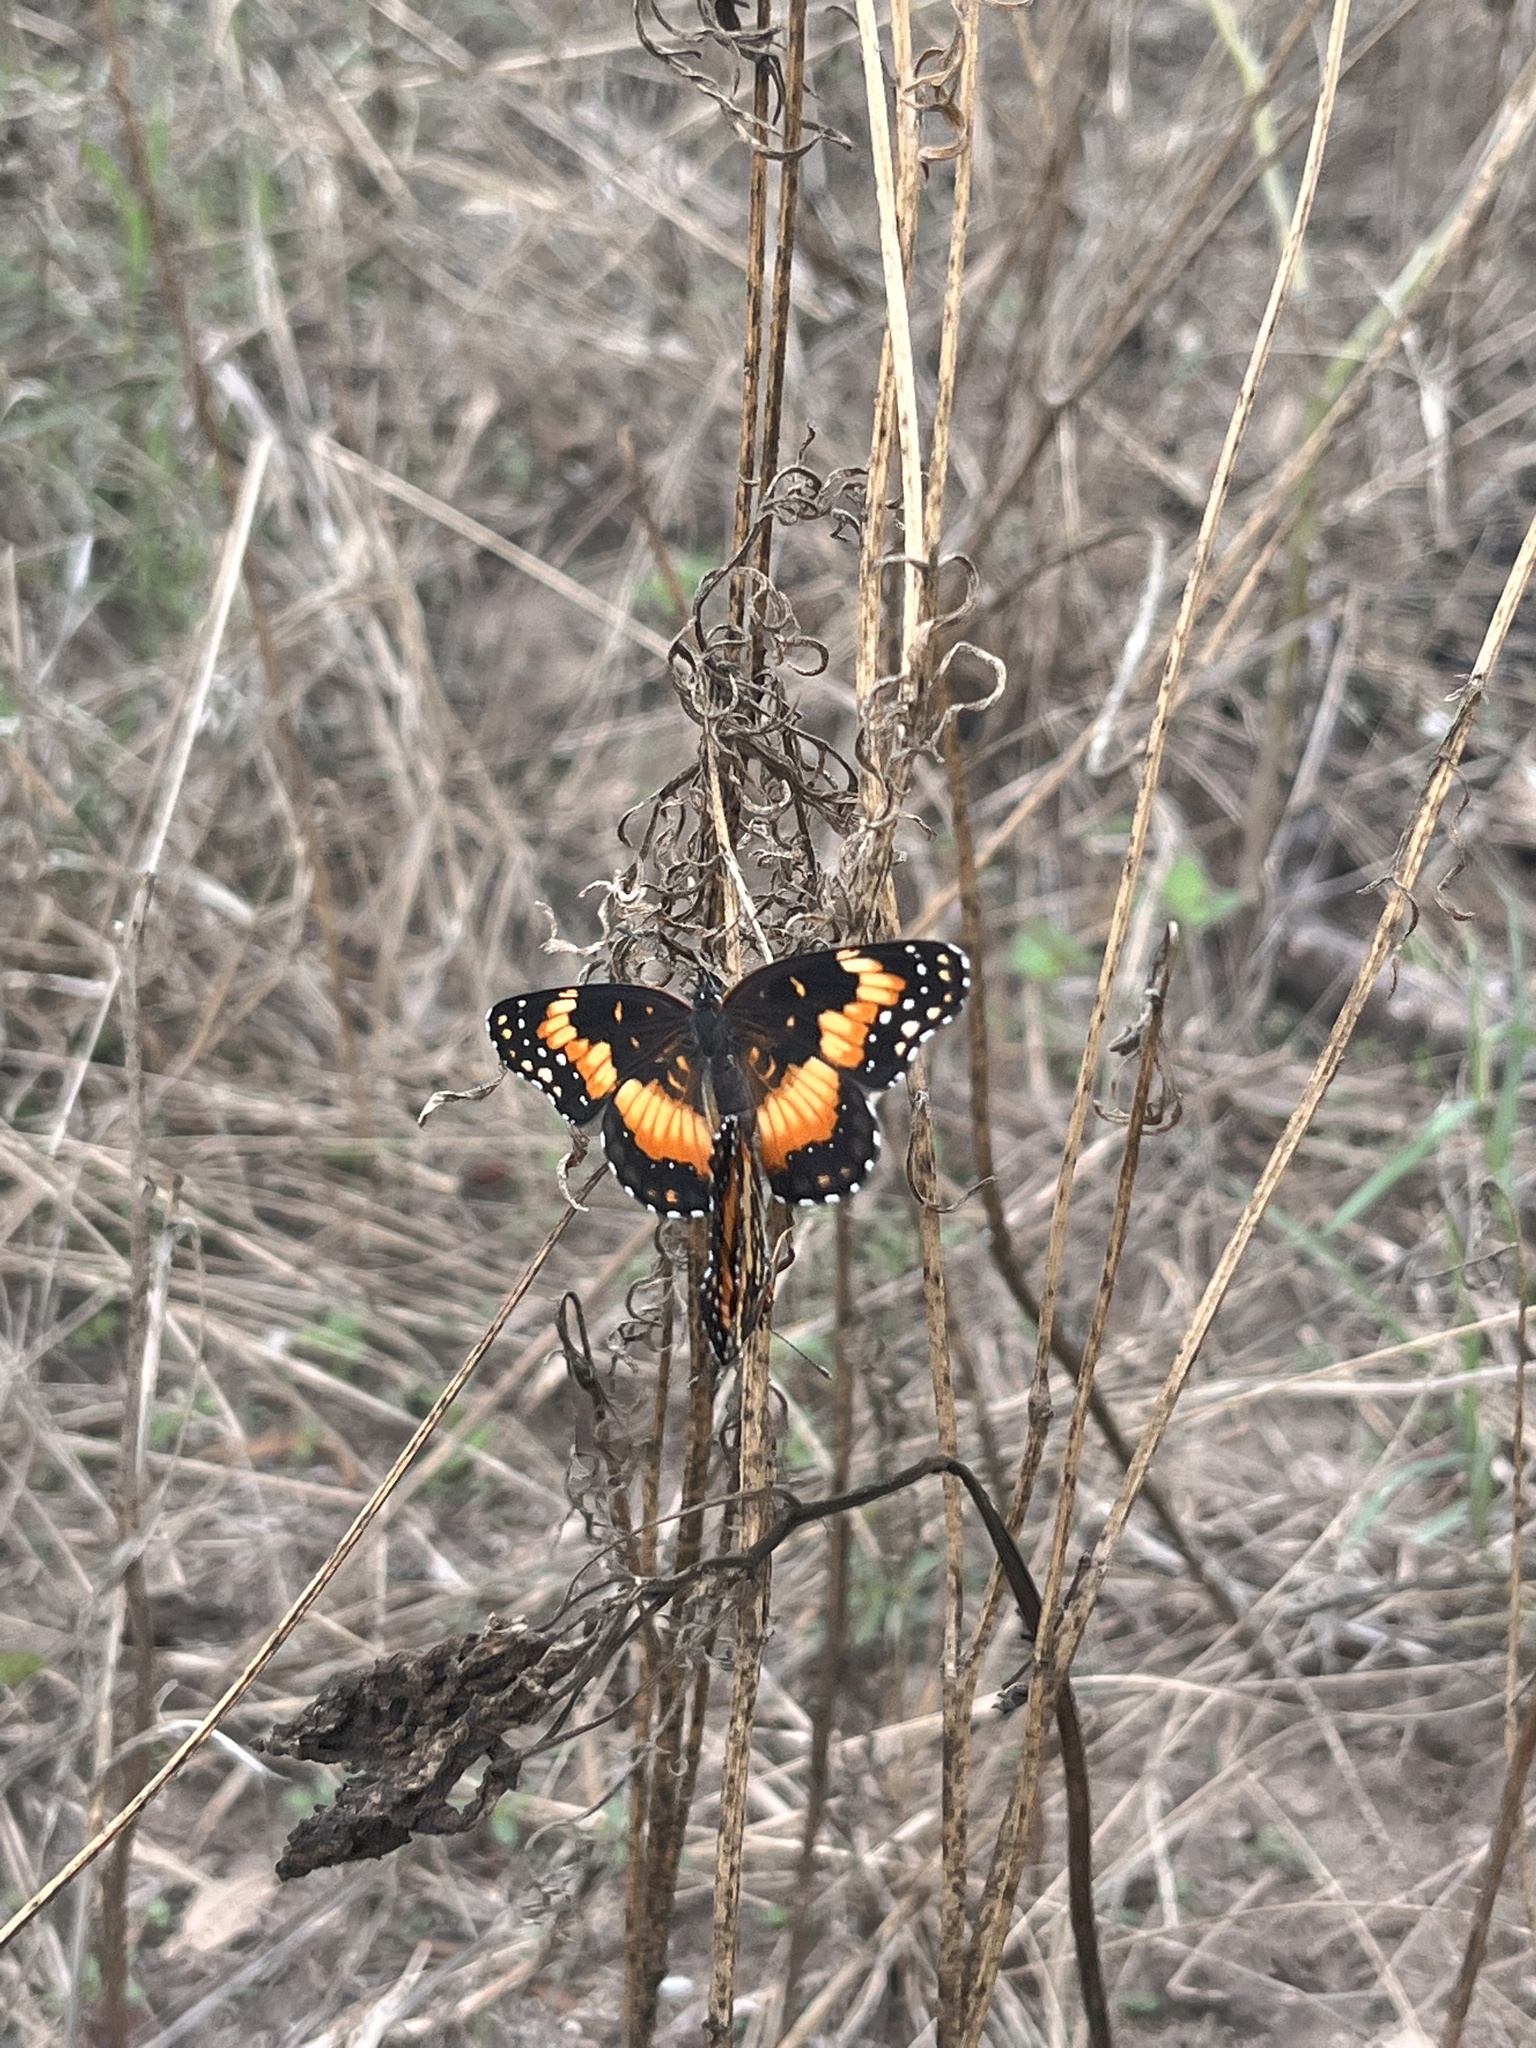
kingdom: Animalia
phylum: Arthropoda
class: Insecta
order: Lepidoptera
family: Nymphalidae
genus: Chlosyne
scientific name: Chlosyne lacinia
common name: Bordered patch
